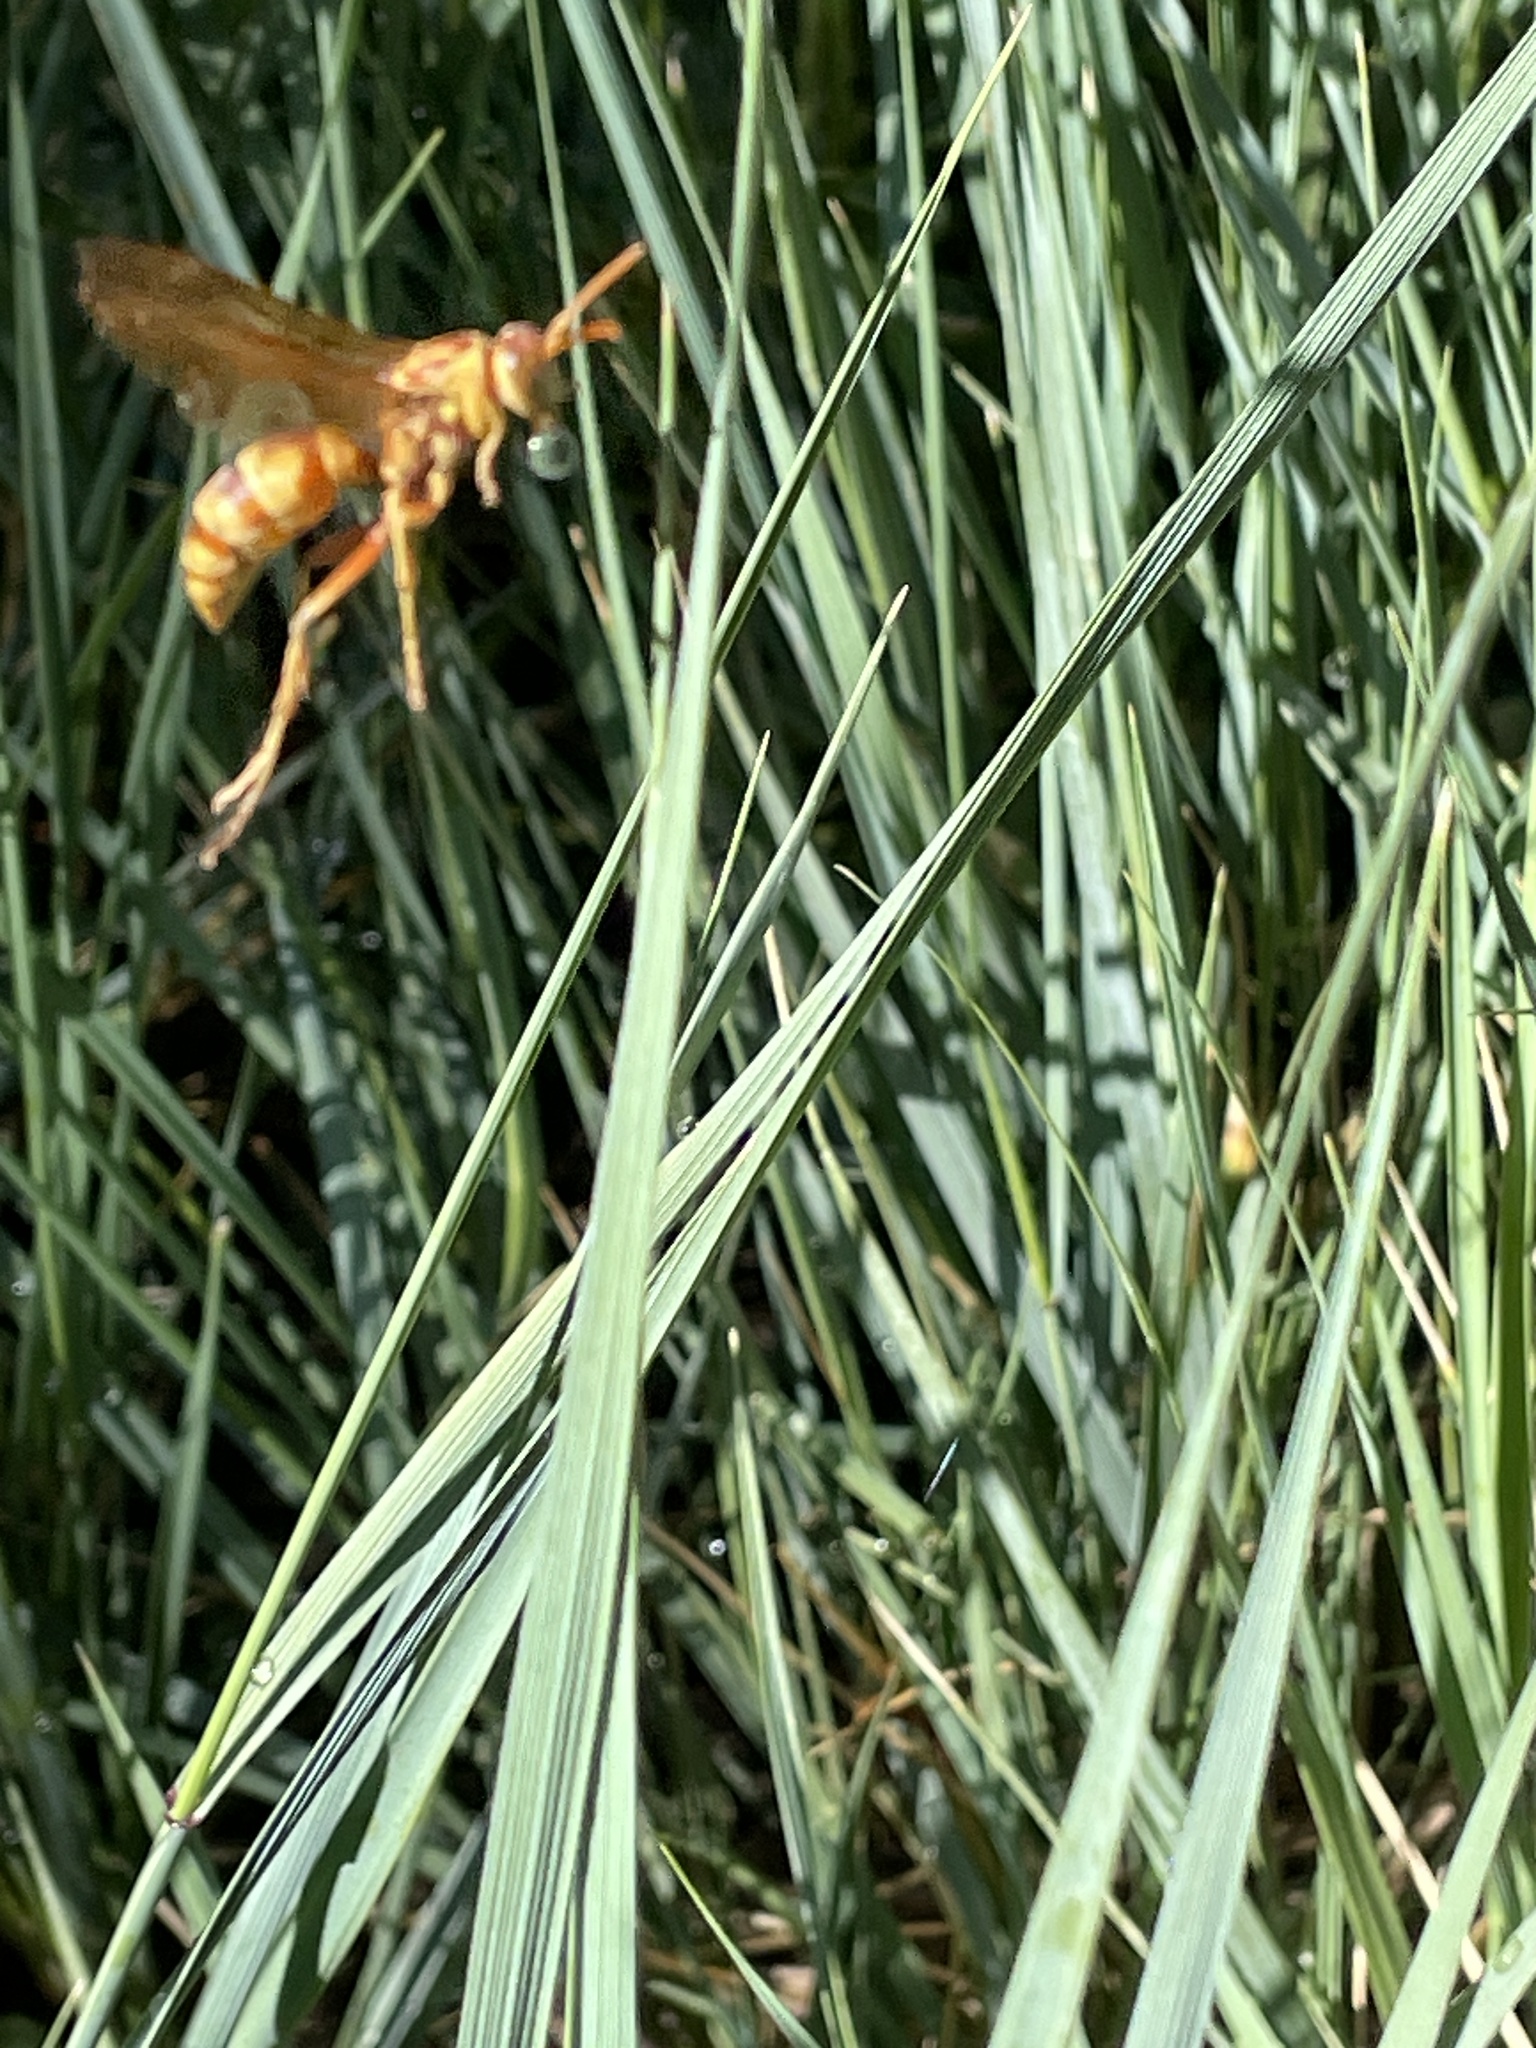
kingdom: Animalia
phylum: Arthropoda
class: Insecta
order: Hymenoptera
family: Eumenidae
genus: Polistes
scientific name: Polistes apachus
